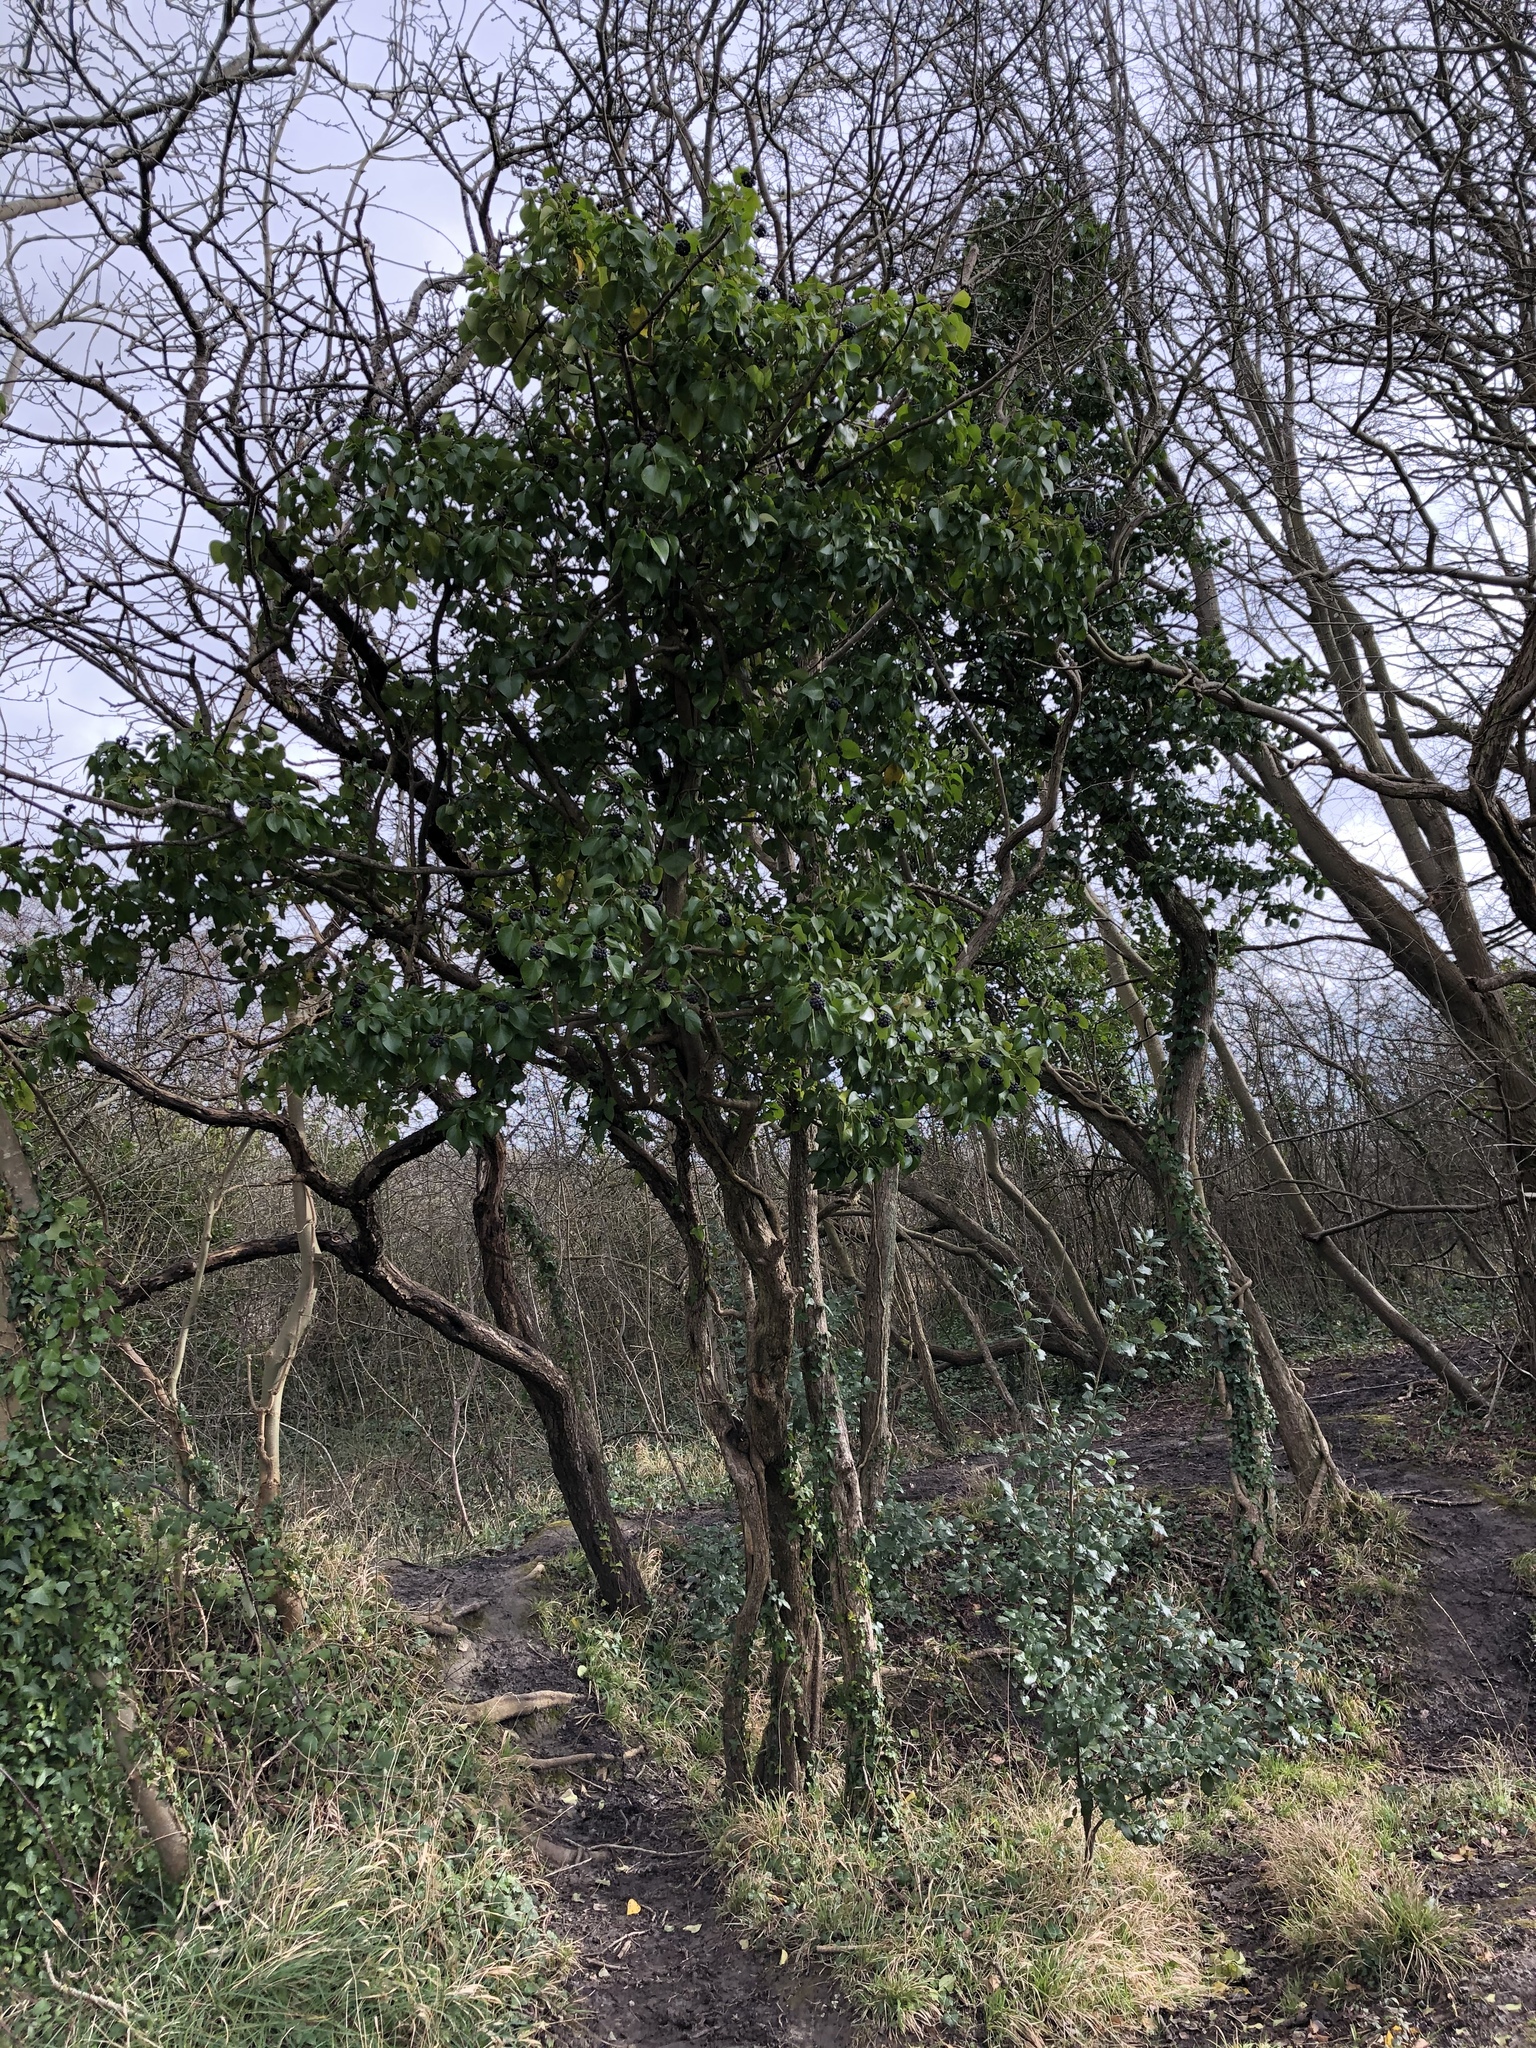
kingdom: Plantae
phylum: Tracheophyta
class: Magnoliopsida
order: Apiales
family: Araliaceae
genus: Hedera
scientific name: Hedera helix
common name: Ivy
